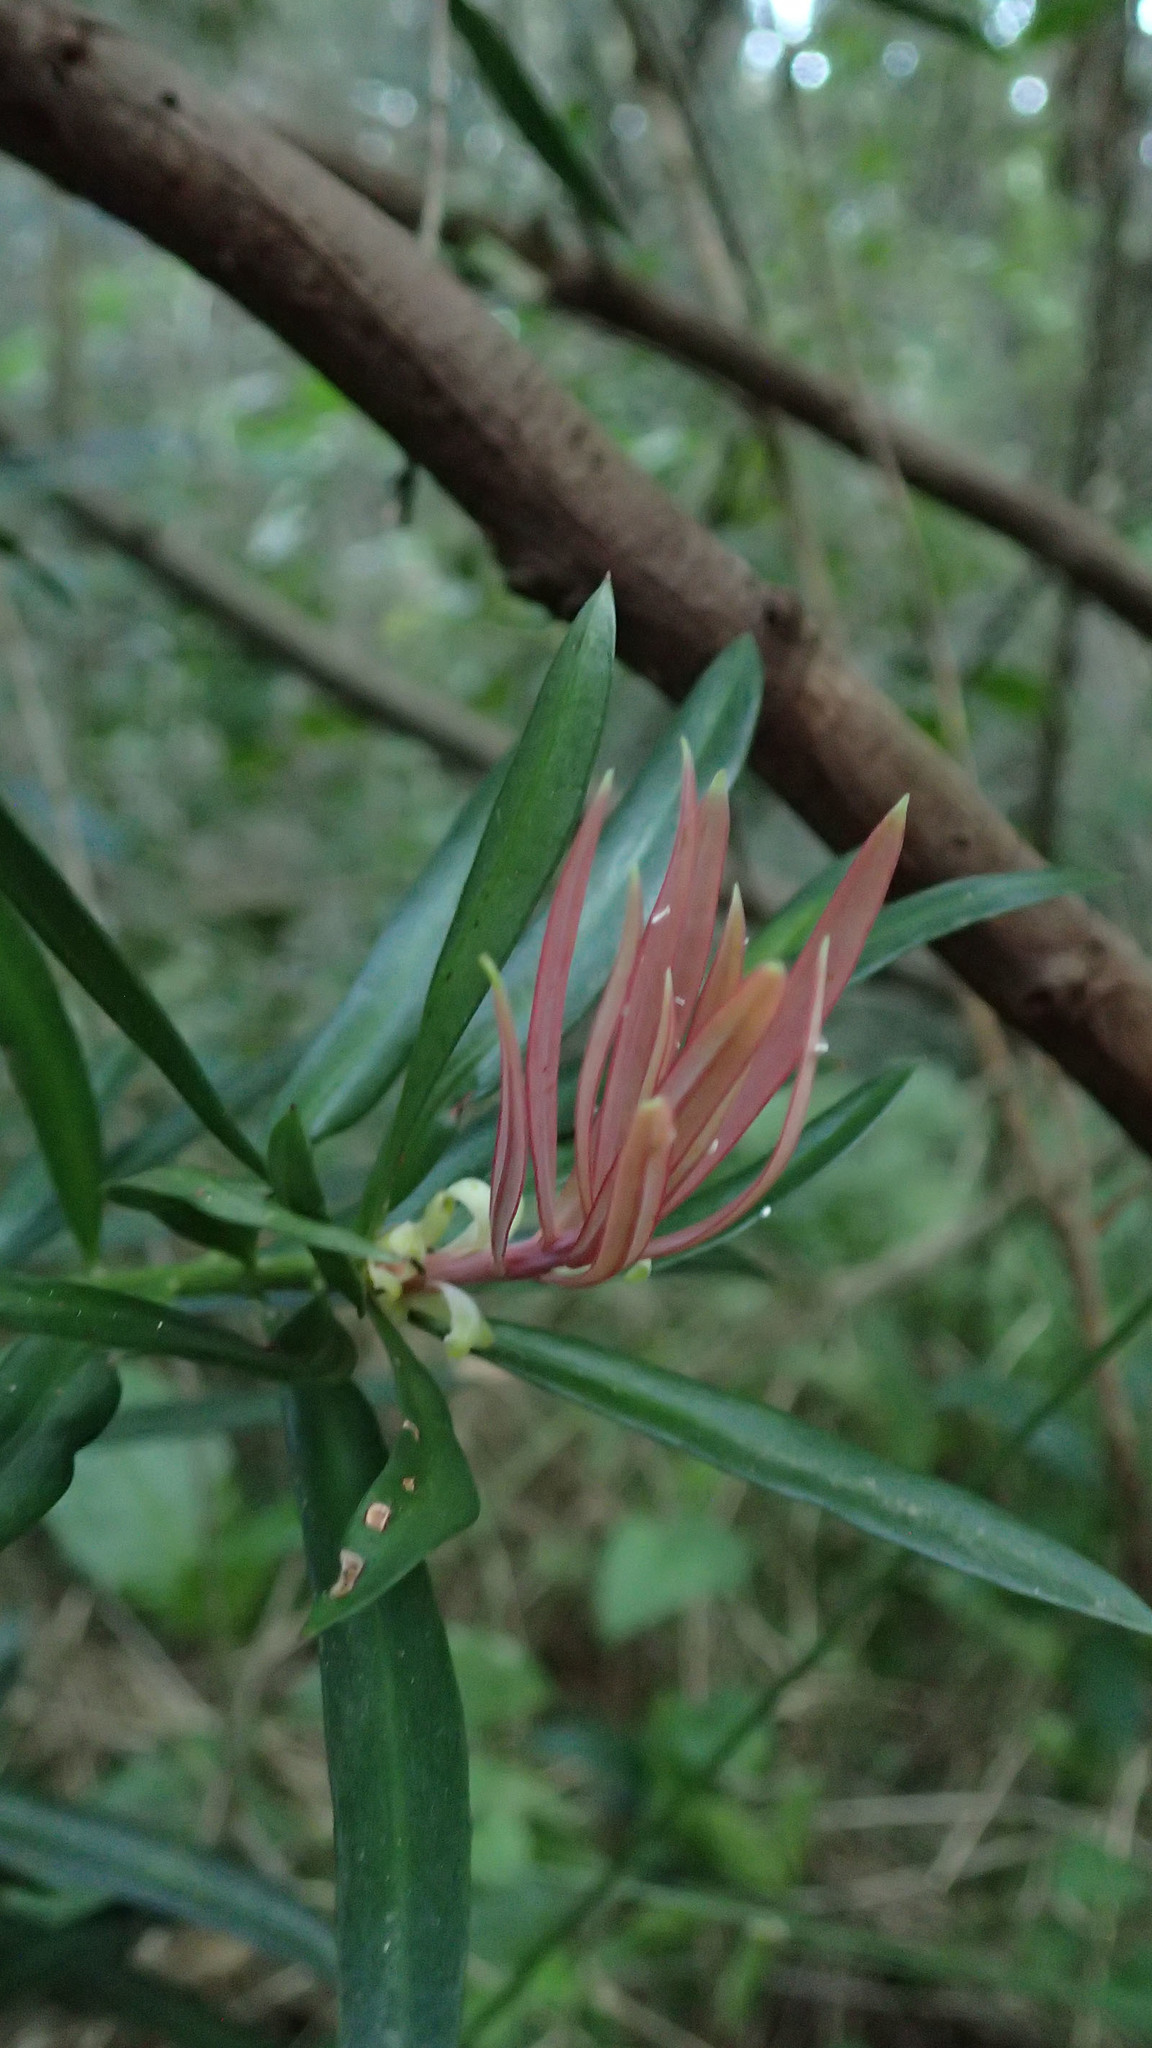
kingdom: Plantae
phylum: Tracheophyta
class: Pinopsida
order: Pinales
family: Podocarpaceae
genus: Podocarpus
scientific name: Podocarpus latifolius
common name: True yellowwood
